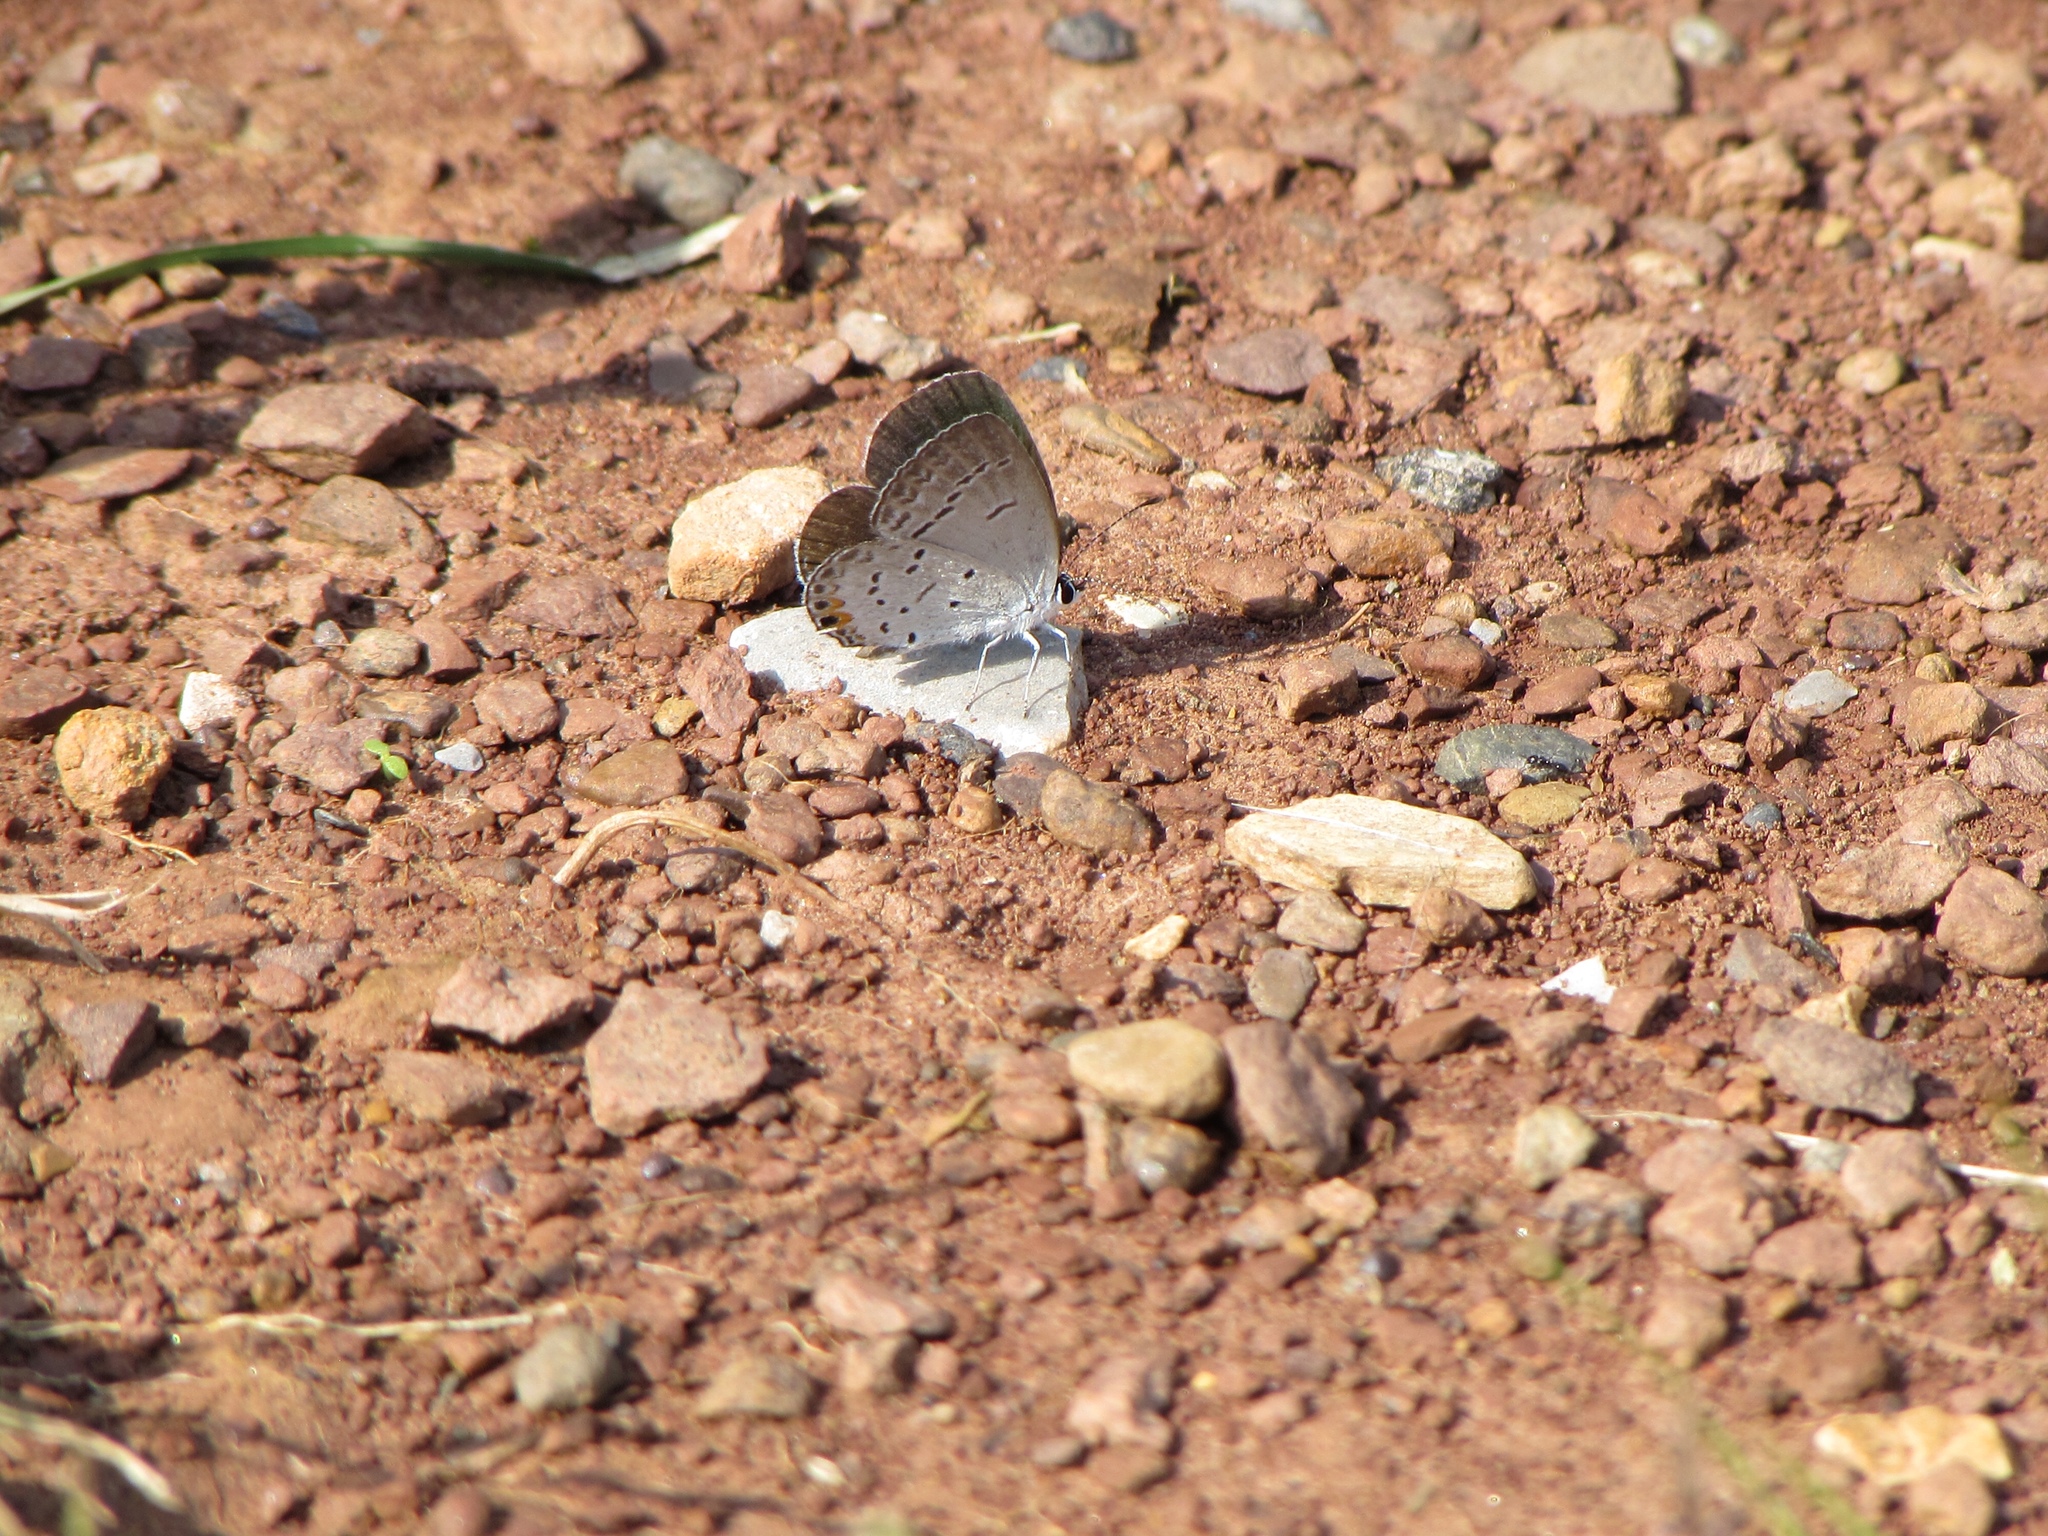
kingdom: Animalia
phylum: Arthropoda
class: Insecta
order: Lepidoptera
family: Lycaenidae
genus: Elkalyce
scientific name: Elkalyce comyntas
